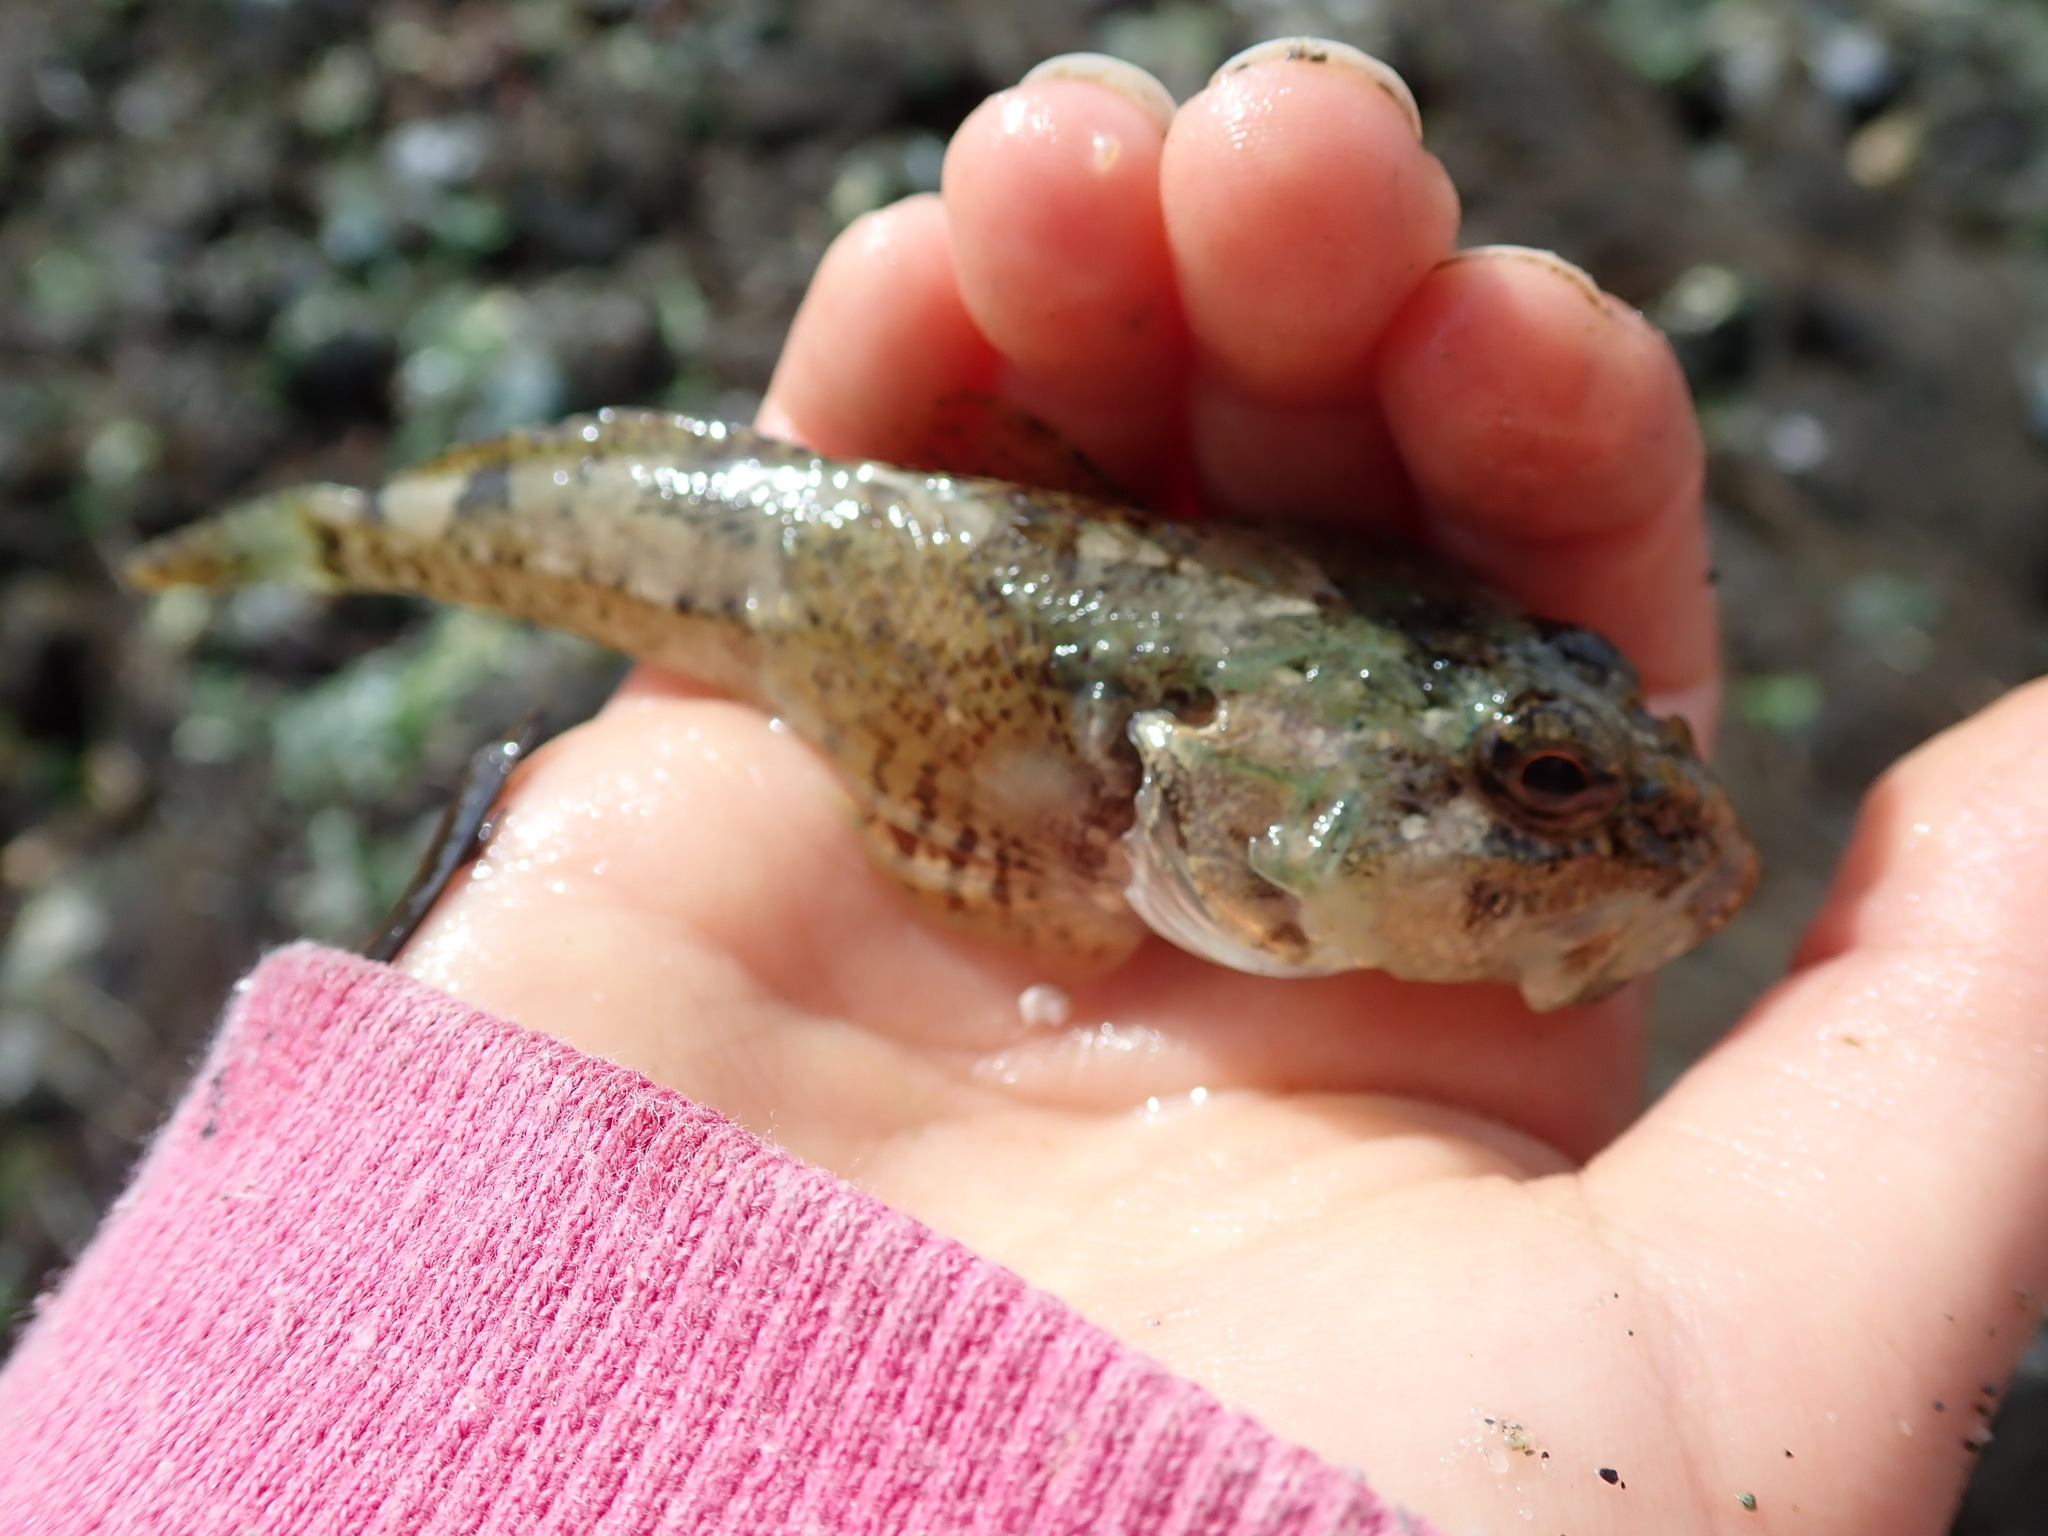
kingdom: Animalia
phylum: Chordata
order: Scorpaeniformes
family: Cottidae
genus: Artedius
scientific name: Artedius fenestralis
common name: Padded sculpin
